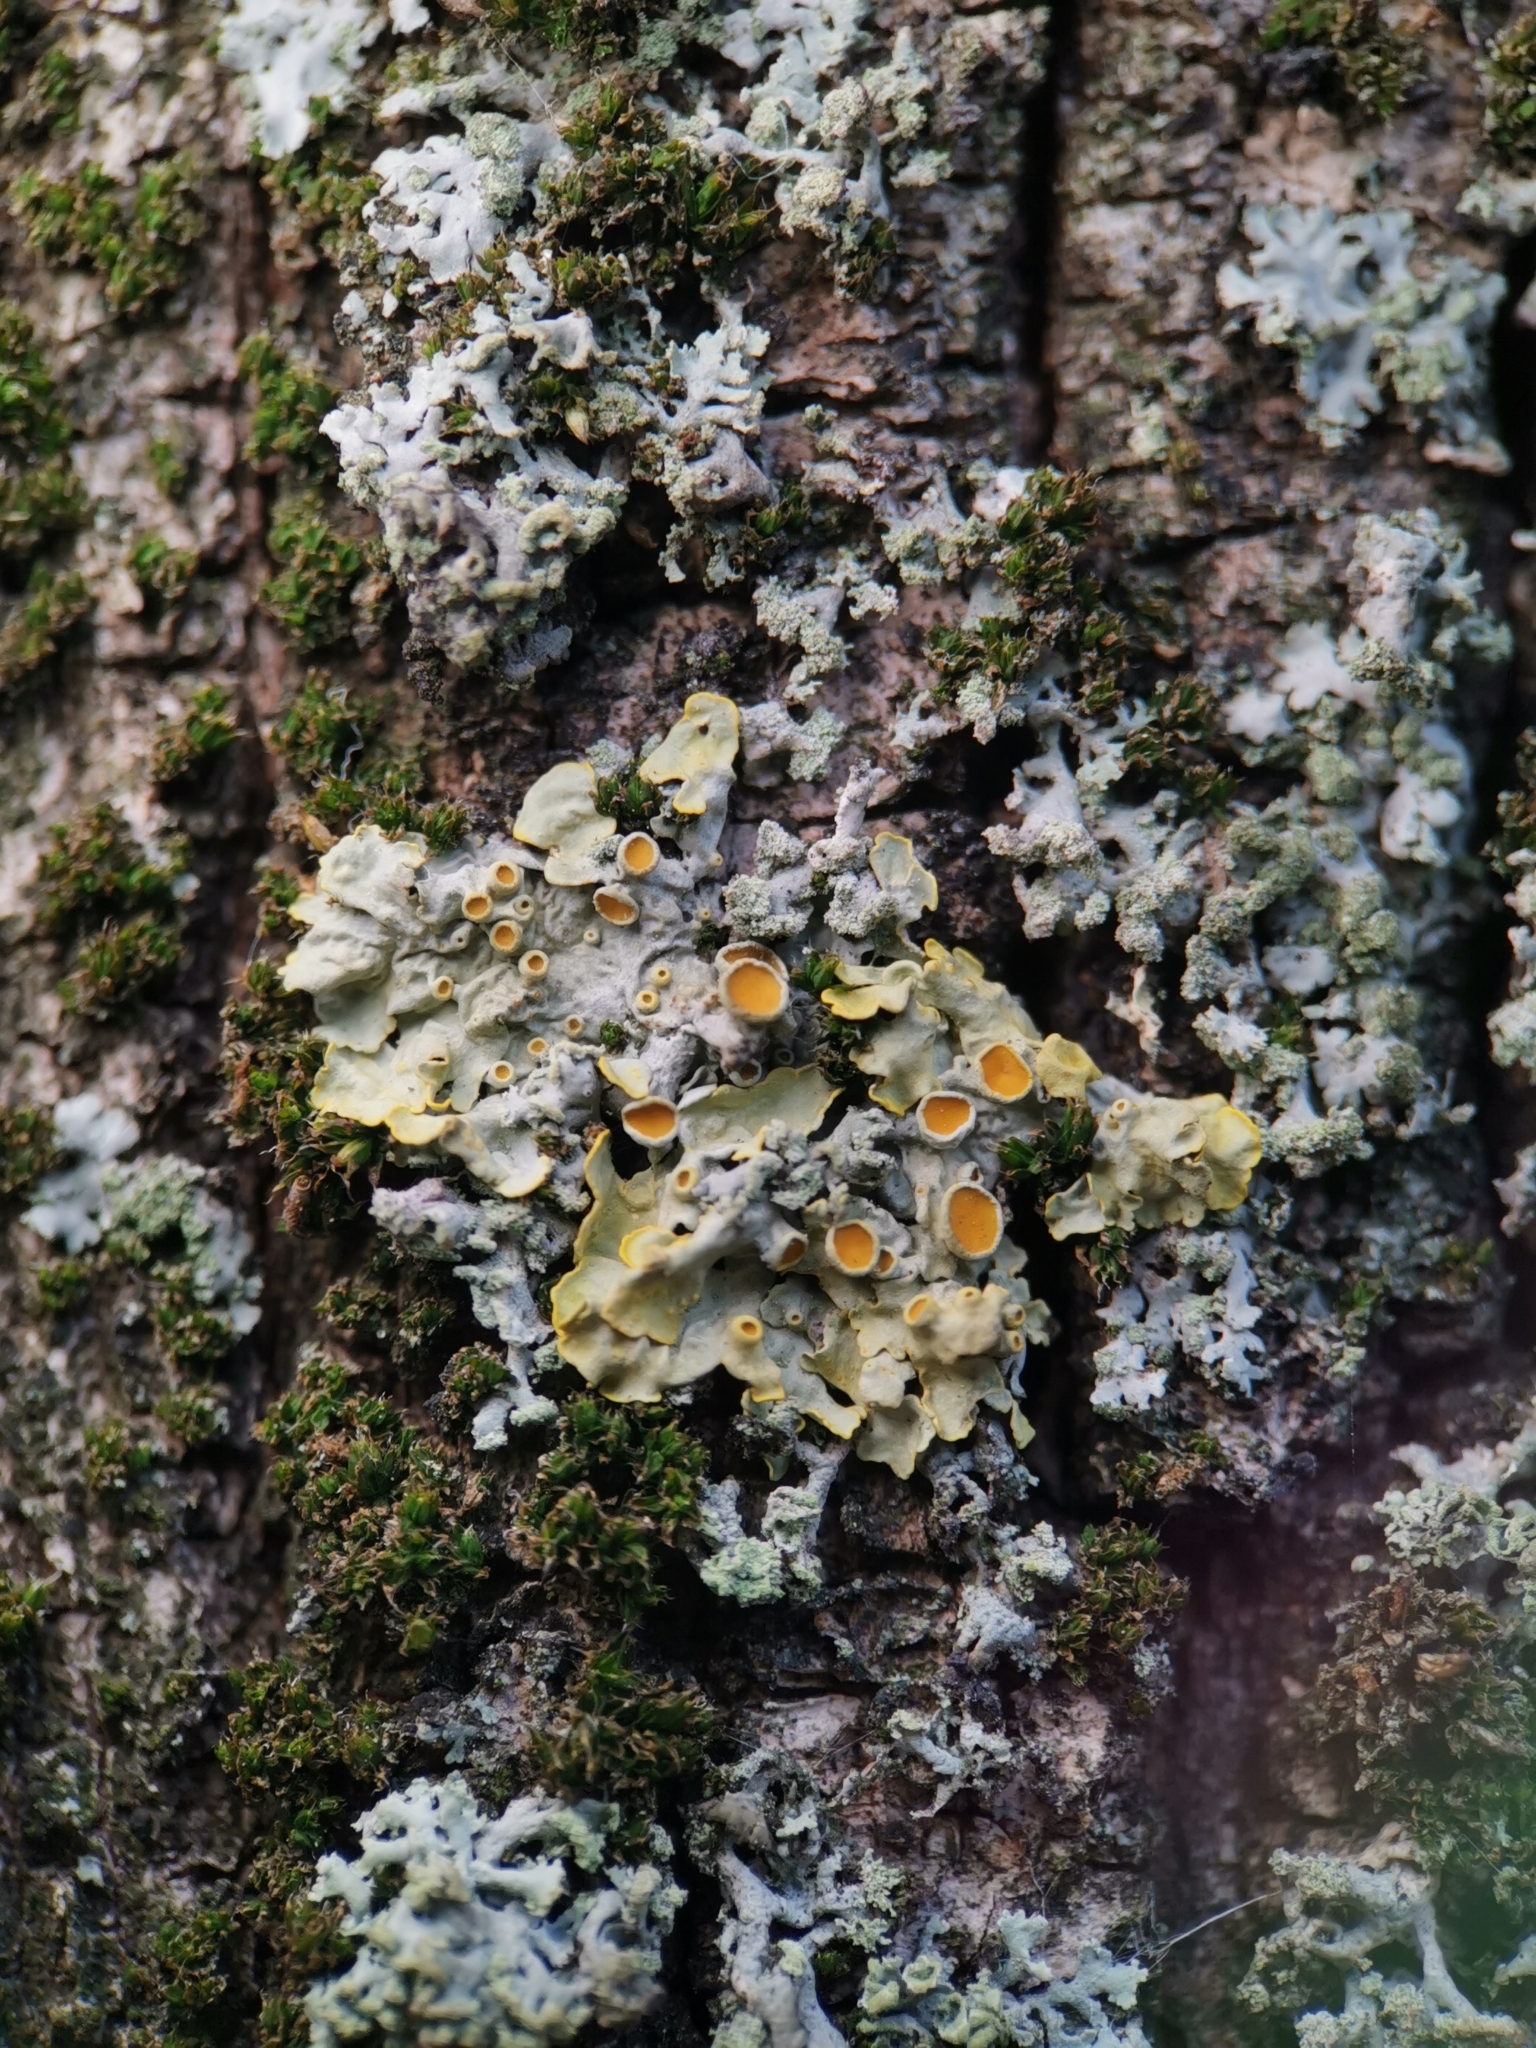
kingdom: Fungi
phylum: Ascomycota
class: Lecanoromycetes
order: Teloschistales
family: Teloschistaceae
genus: Xanthoria
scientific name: Xanthoria parietina
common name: Common orange lichen
